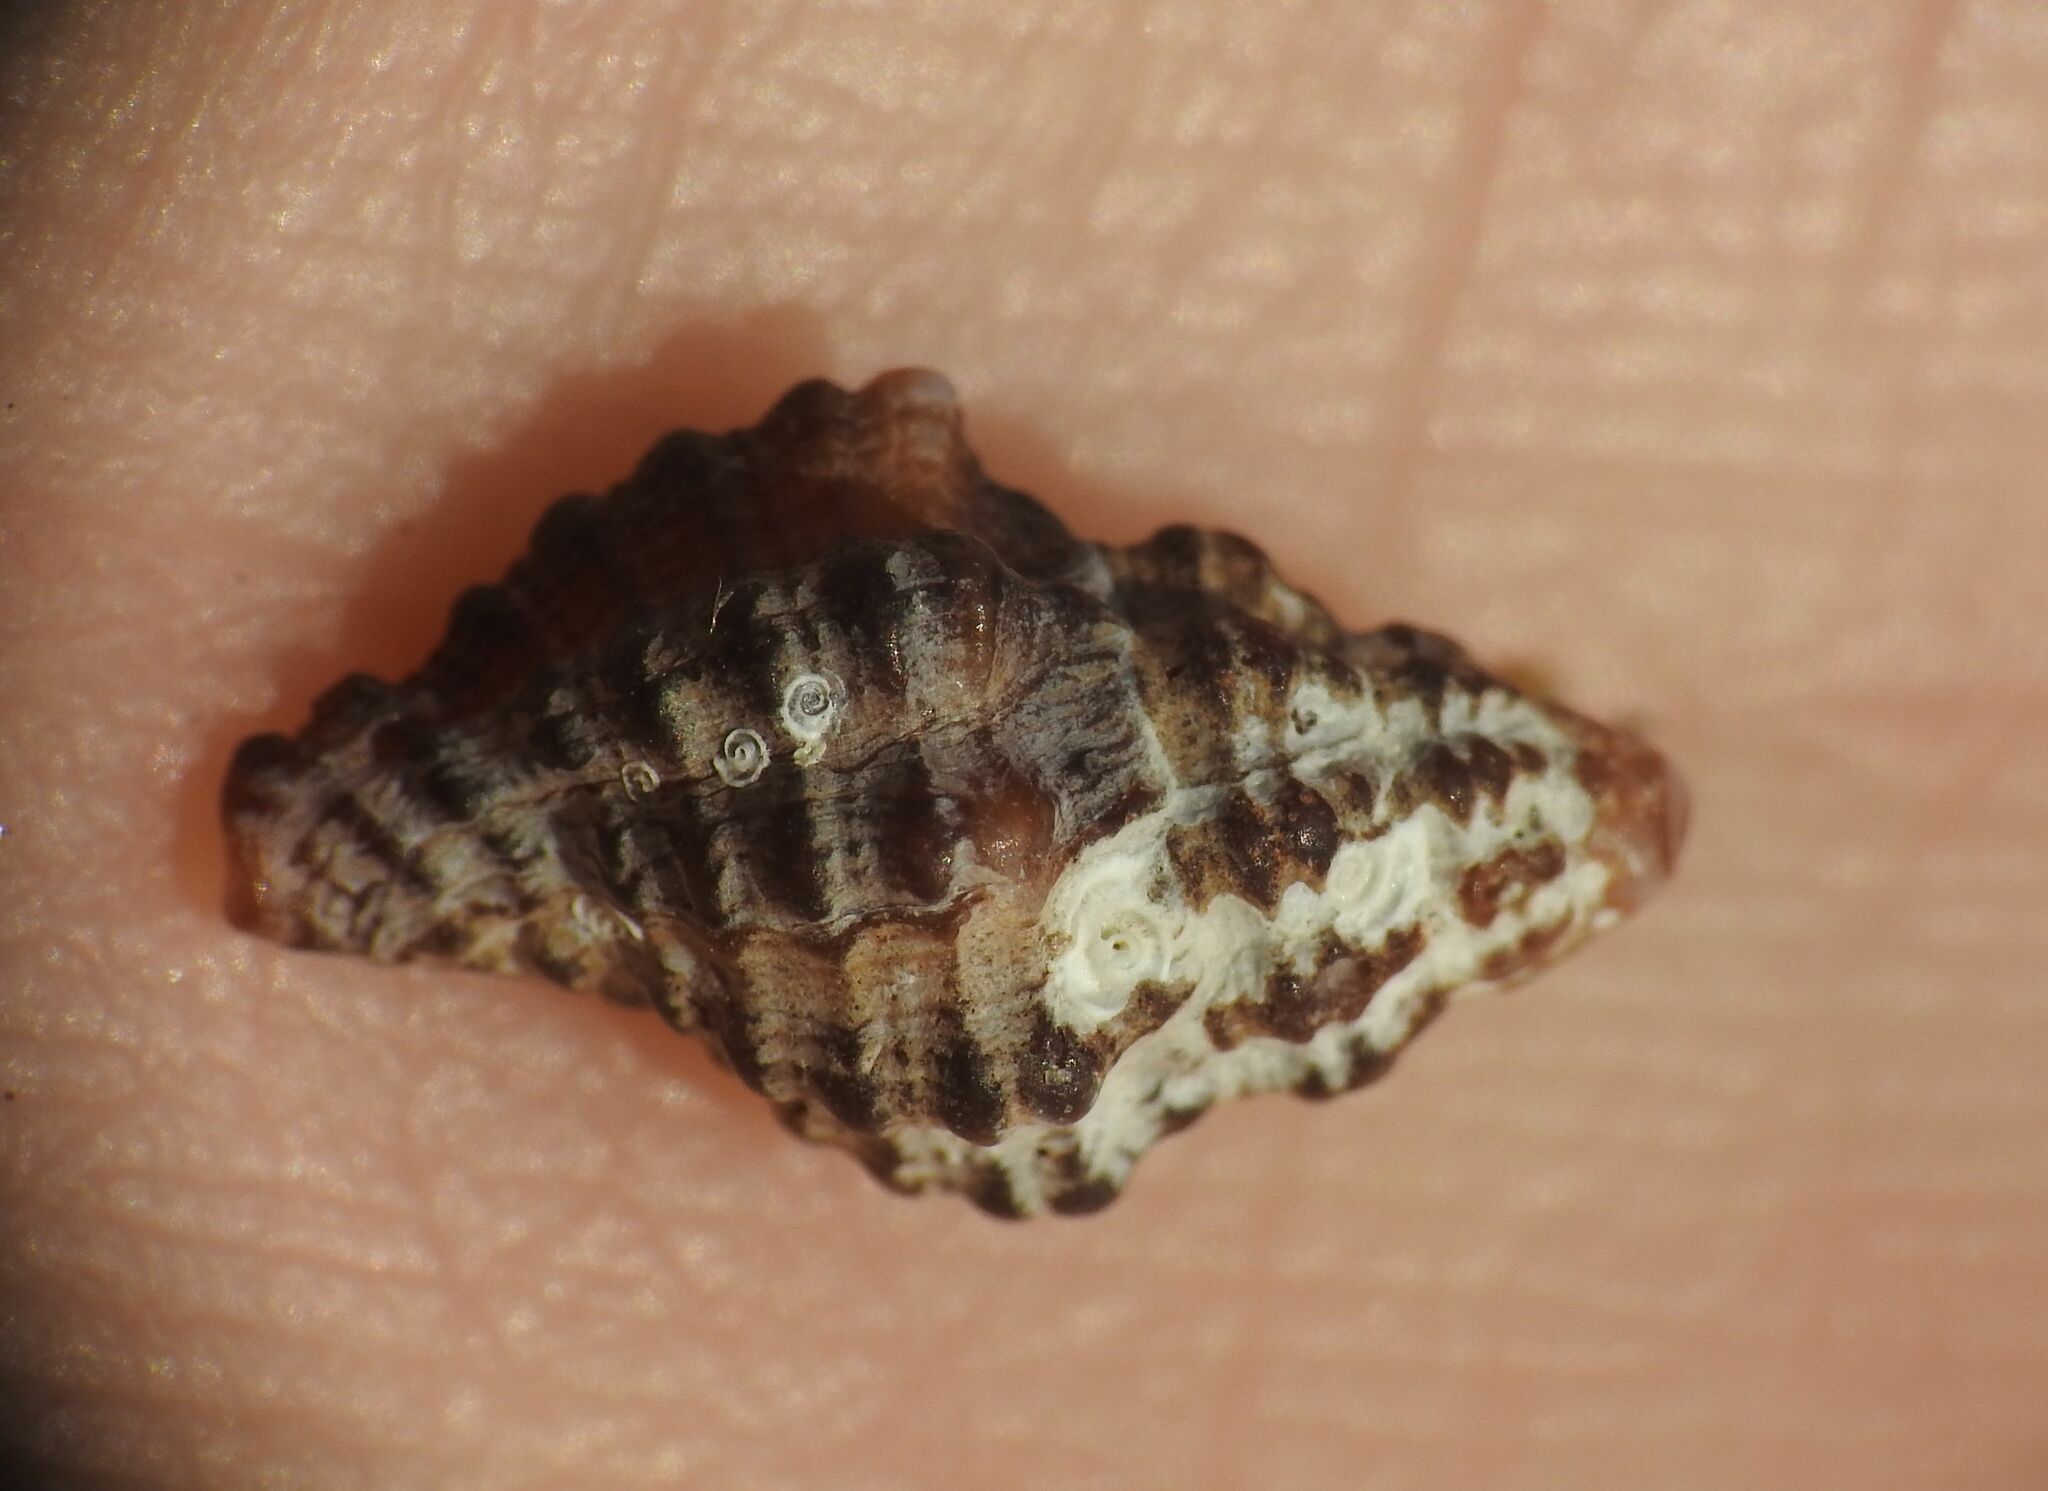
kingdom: Animalia
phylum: Mollusca
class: Gastropoda
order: Neogastropoda
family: Muricidae
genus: Muricopsis
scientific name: Muricopsis cristata
